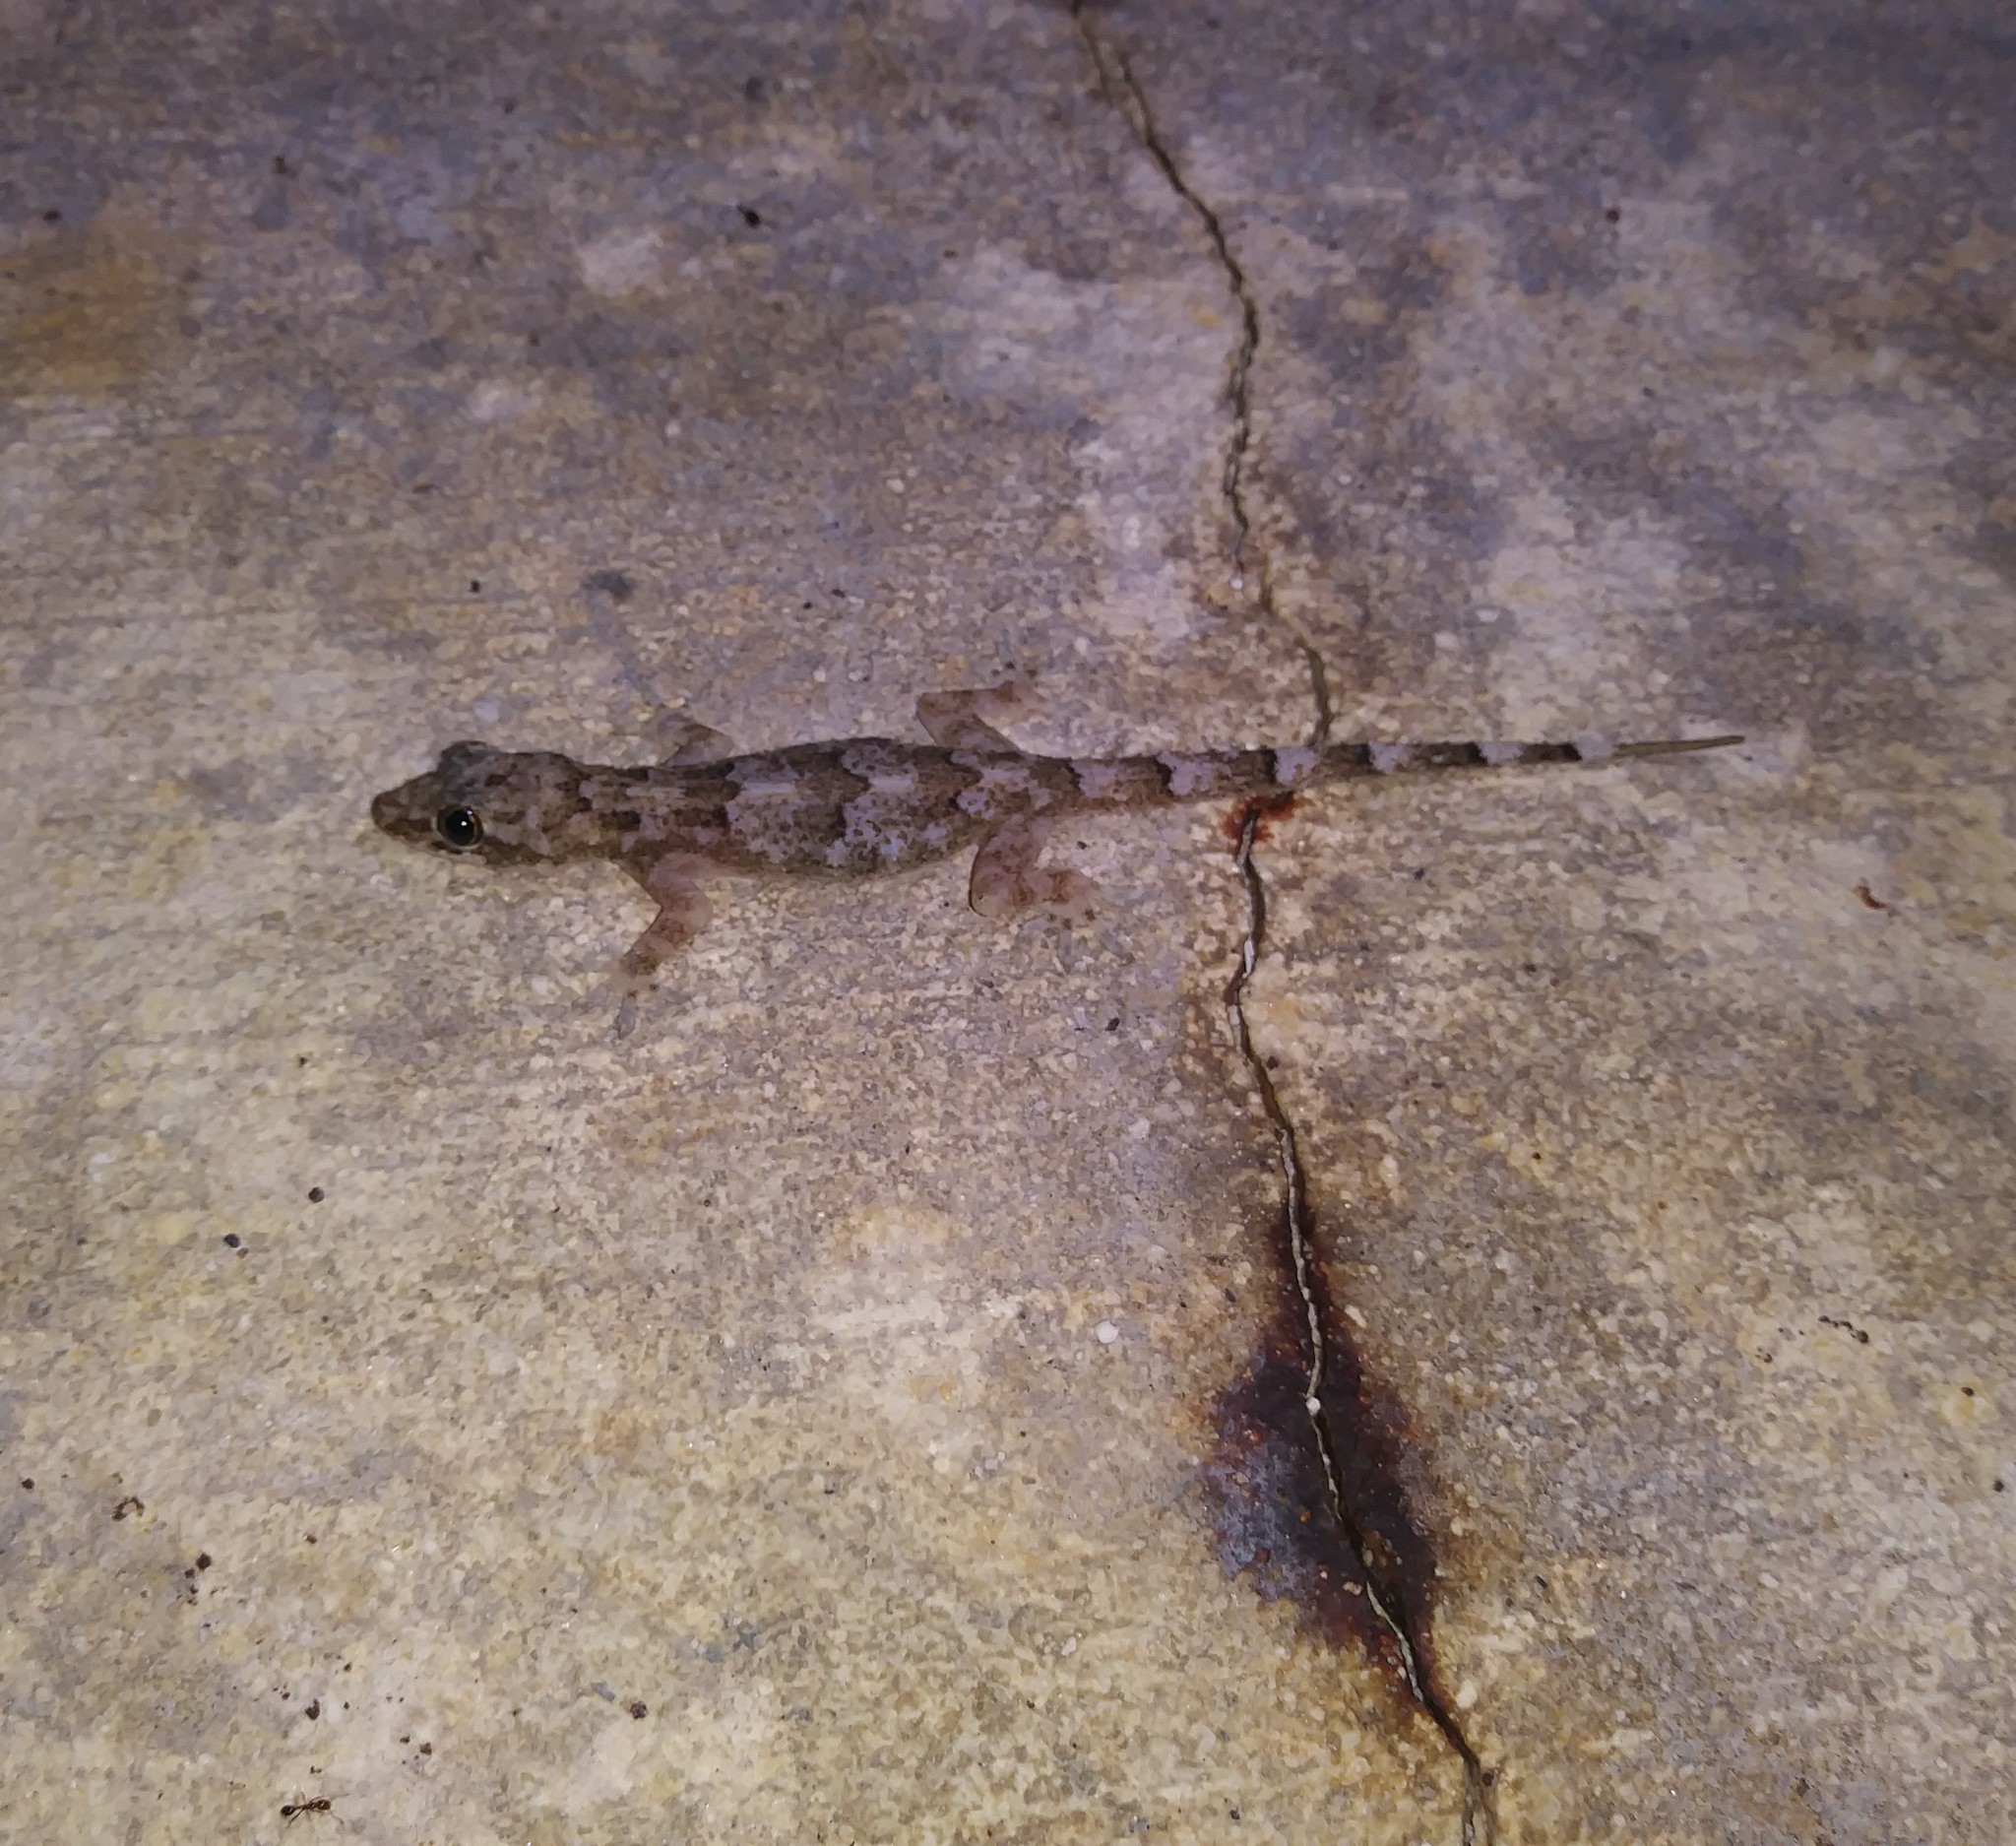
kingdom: Animalia
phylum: Chordata
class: Squamata
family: Gekkonidae
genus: Hemidactylus
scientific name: Hemidactylus mabouia
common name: House gecko
